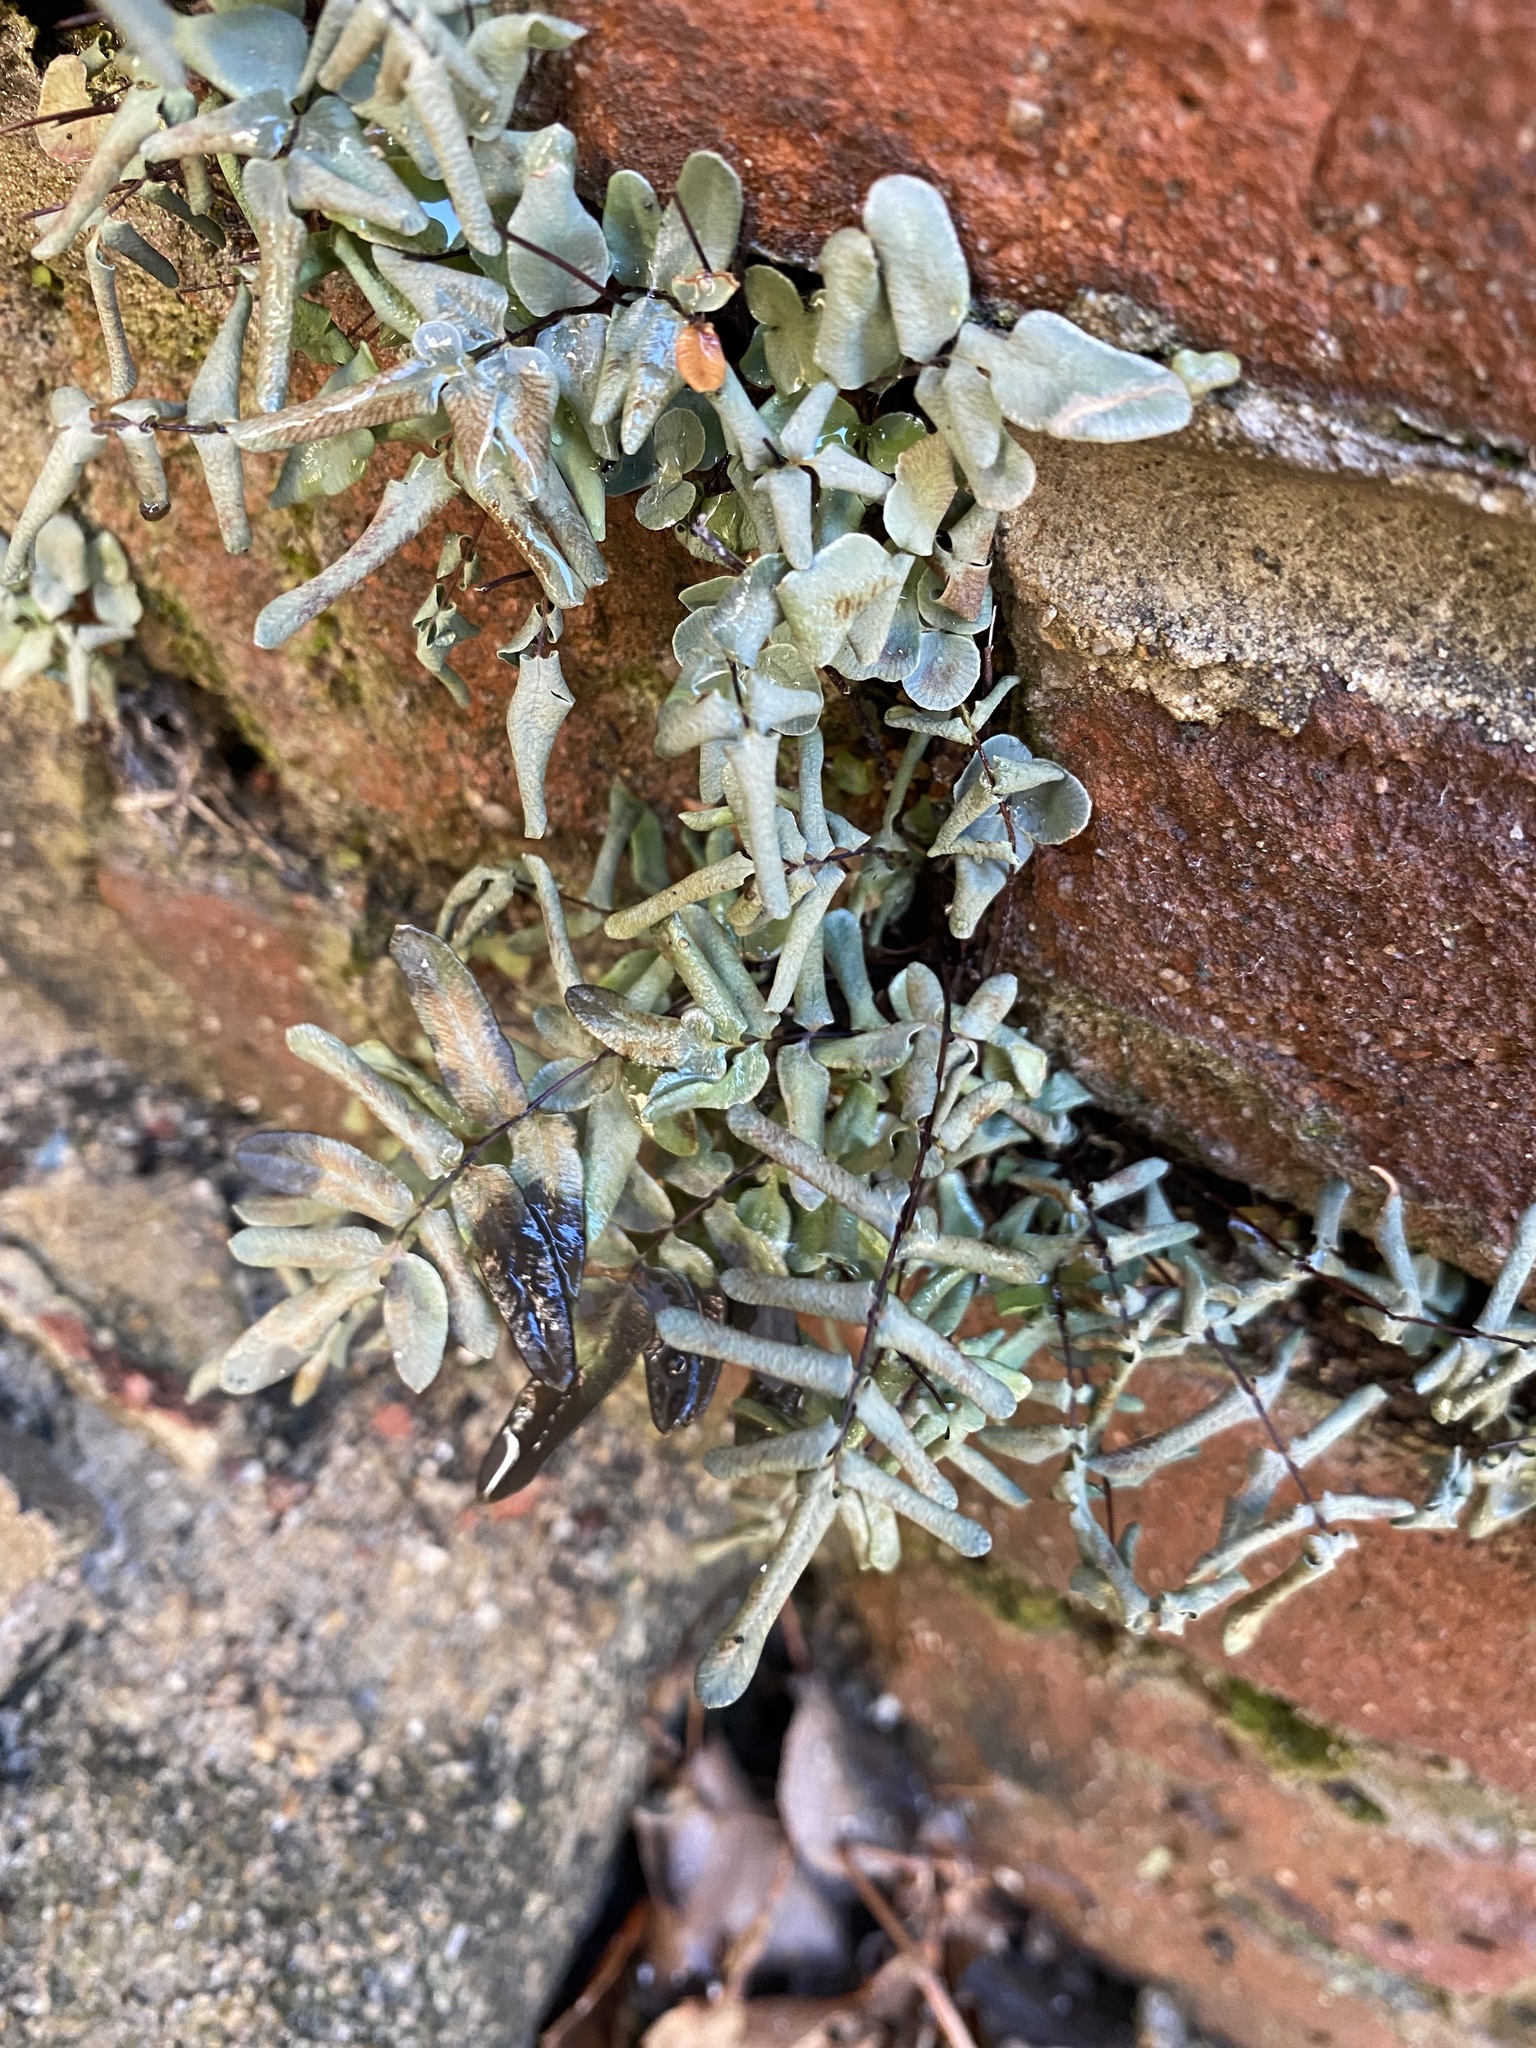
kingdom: Plantae
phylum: Tracheophyta
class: Polypodiopsida
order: Polypodiales
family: Pteridaceae
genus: Pellaea
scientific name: Pellaea glabella
